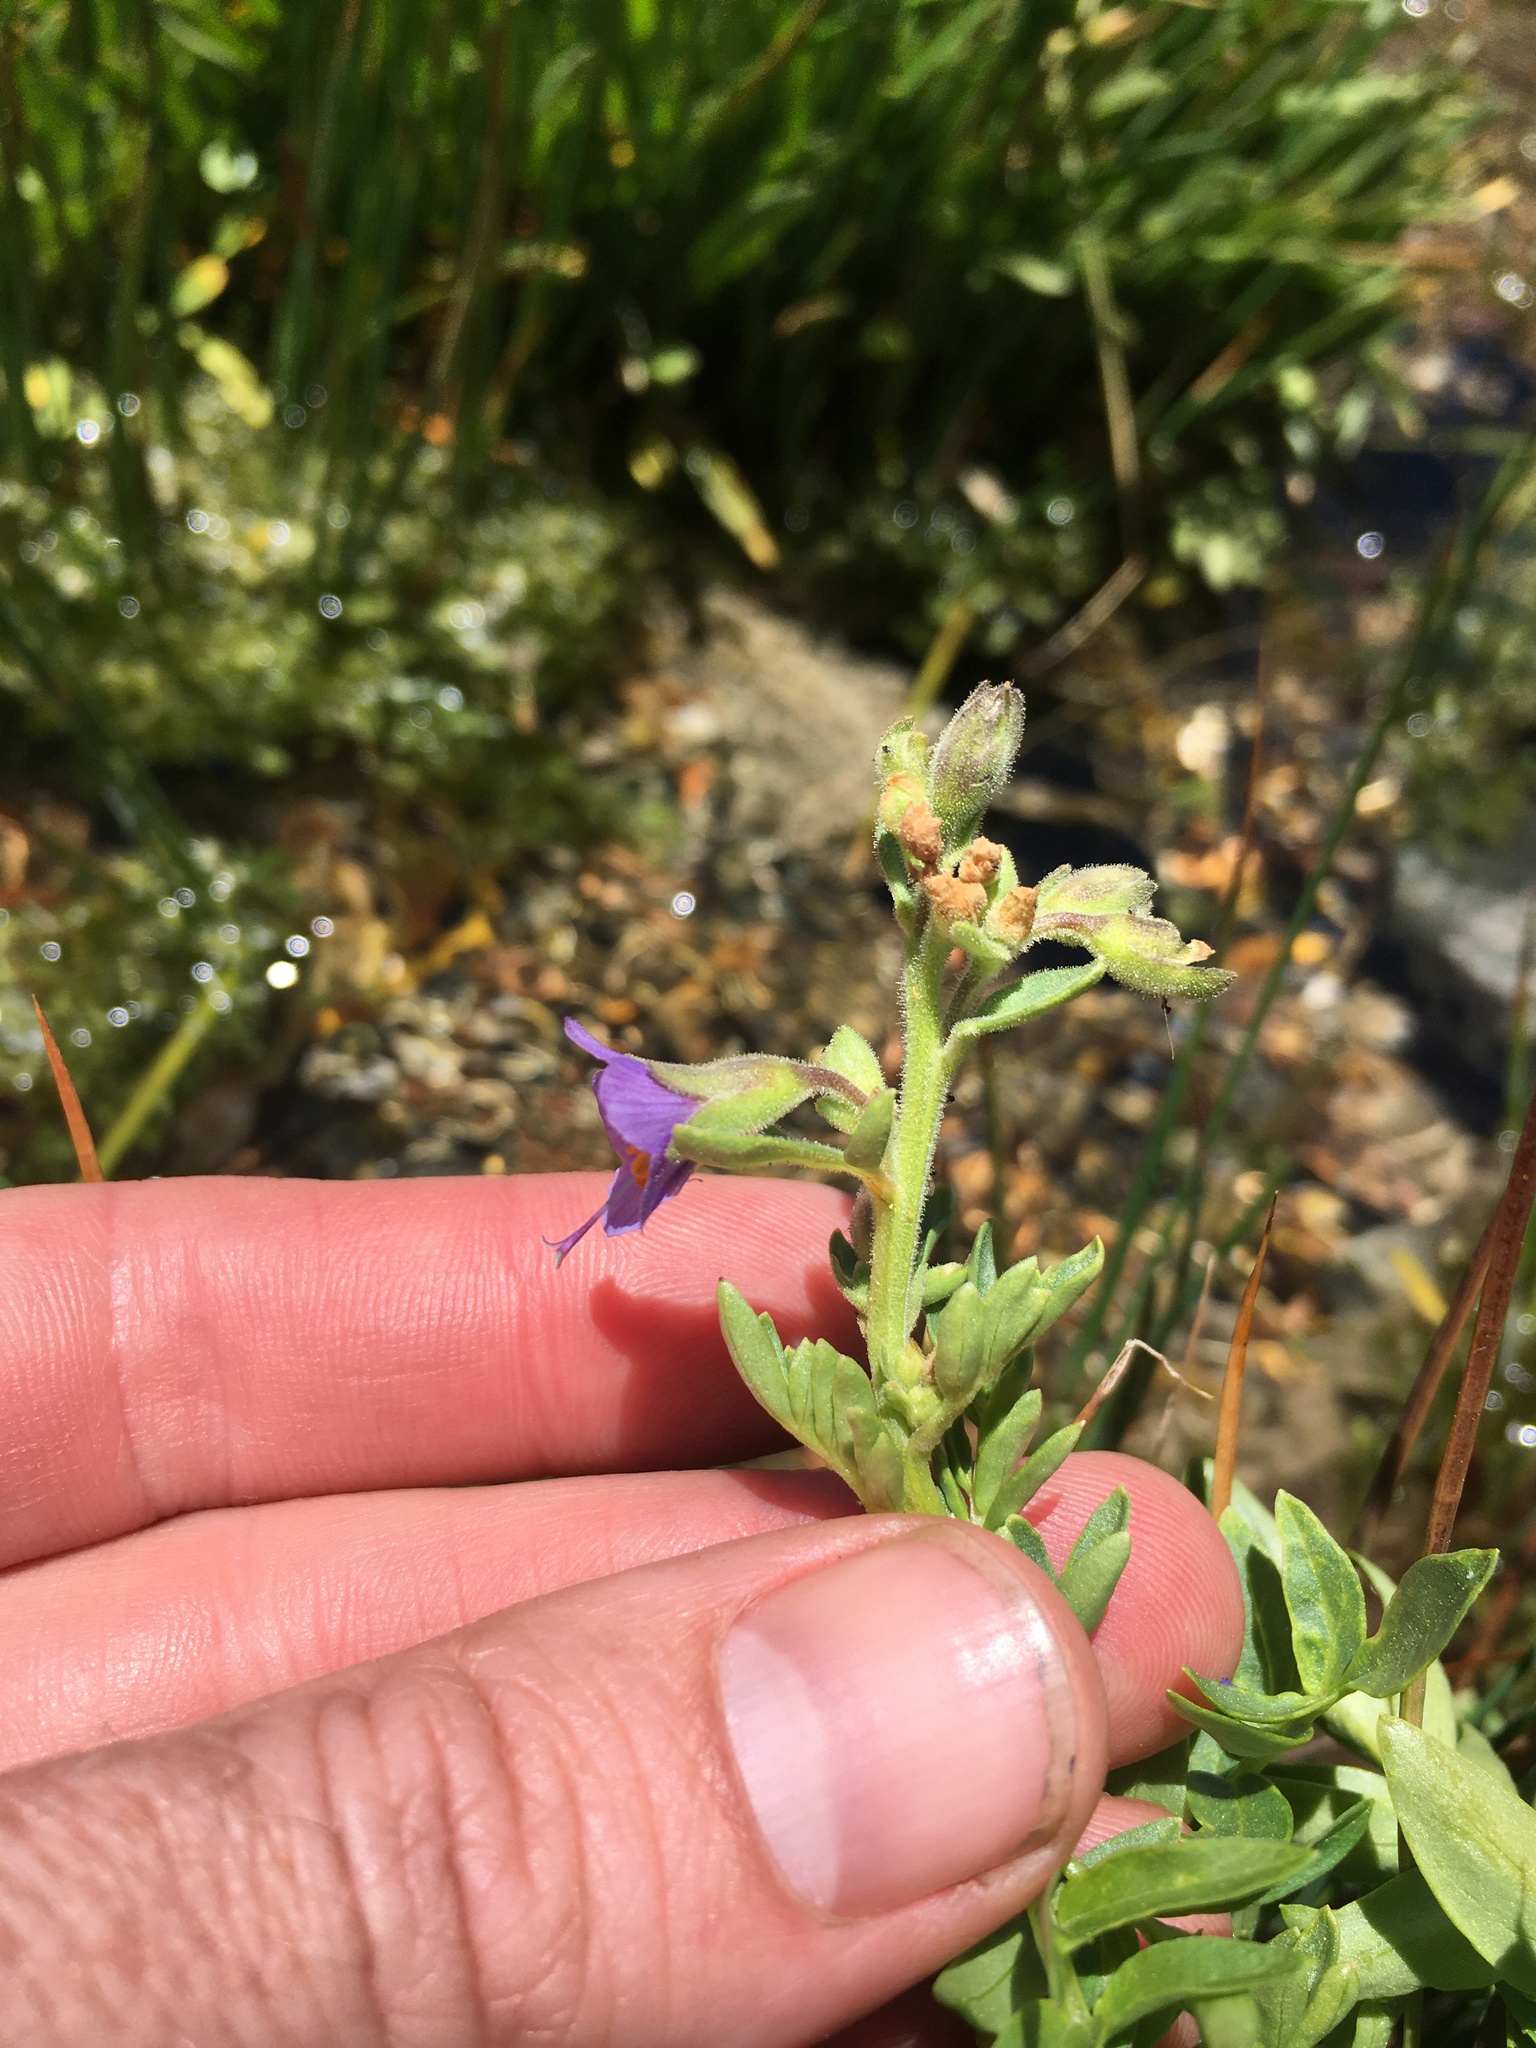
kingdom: Plantae
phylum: Tracheophyta
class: Magnoliopsida
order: Ericales
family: Polemoniaceae
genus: Polemonium
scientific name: Polemonium occidentale
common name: Western jacob's-ladder
